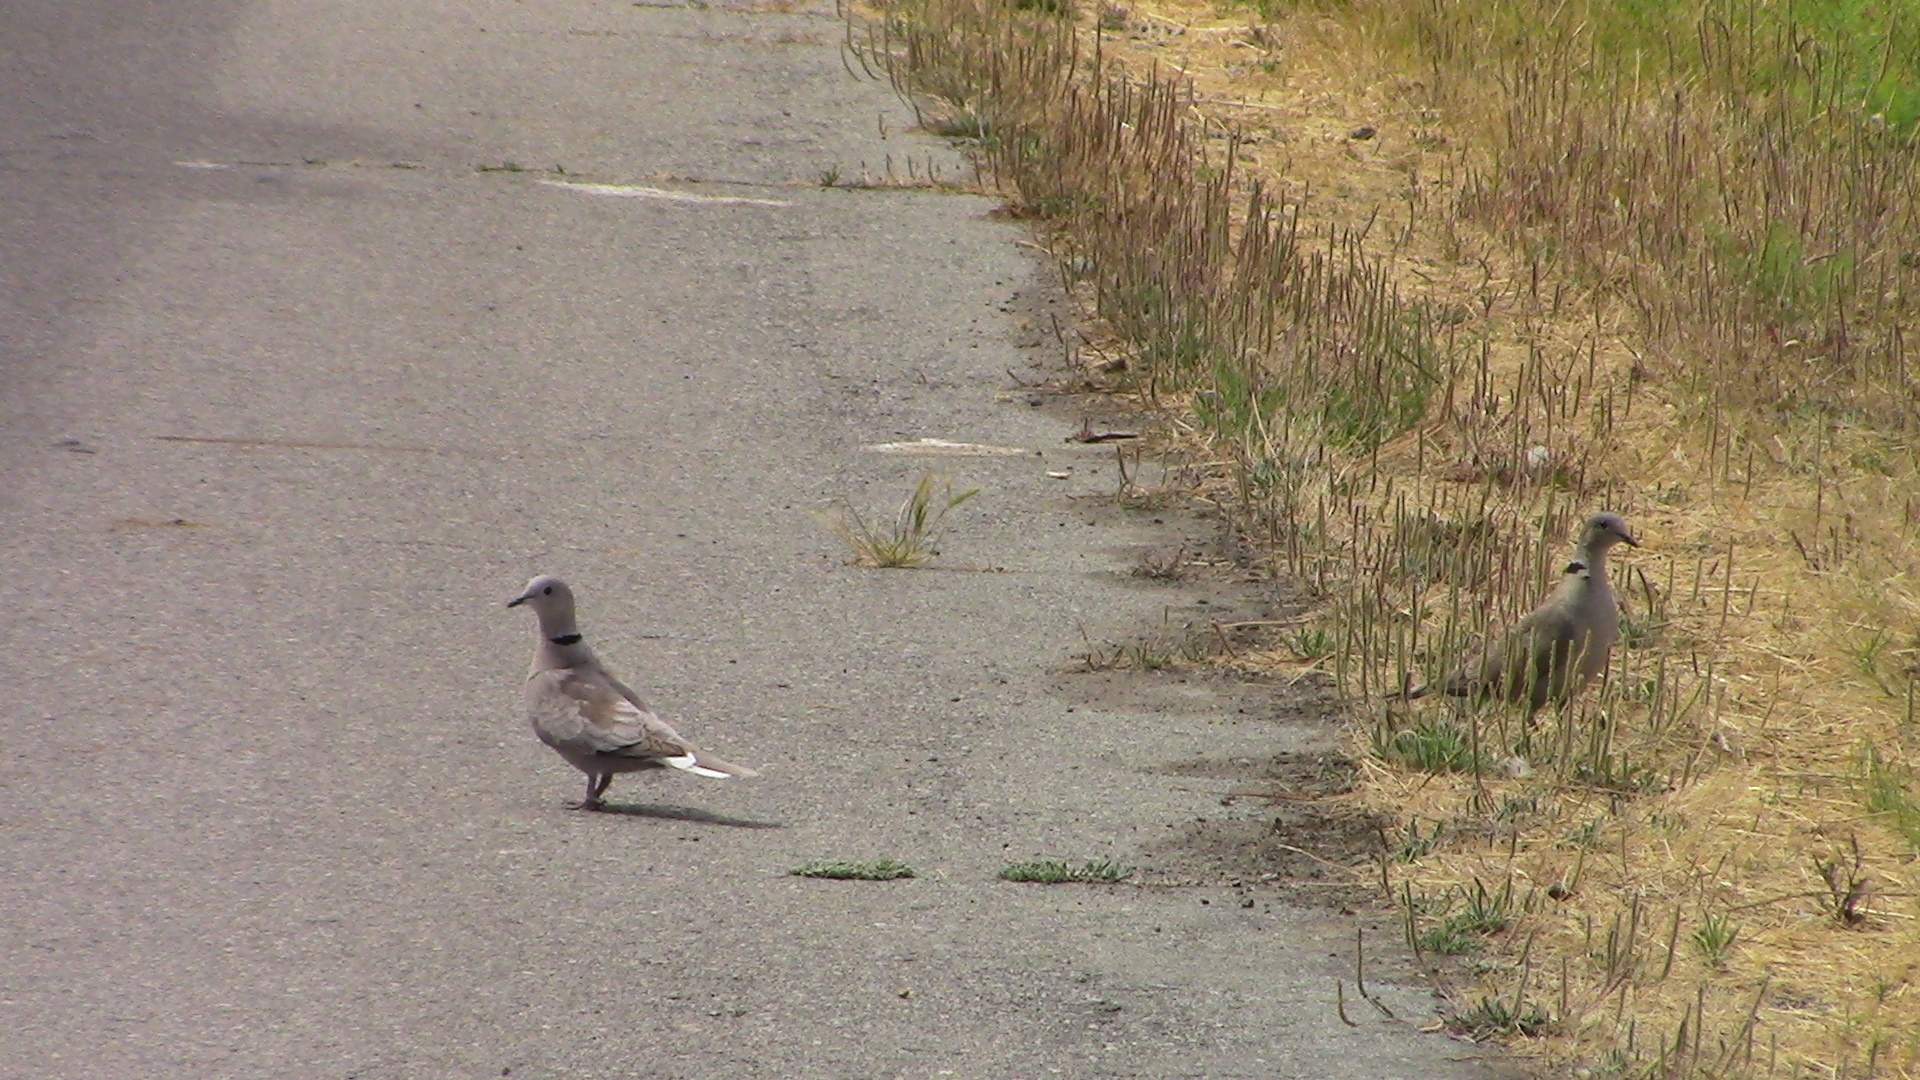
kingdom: Animalia
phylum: Chordata
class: Aves
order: Columbiformes
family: Columbidae
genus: Streptopelia
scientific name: Streptopelia decaocto
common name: Eurasian collared dove
